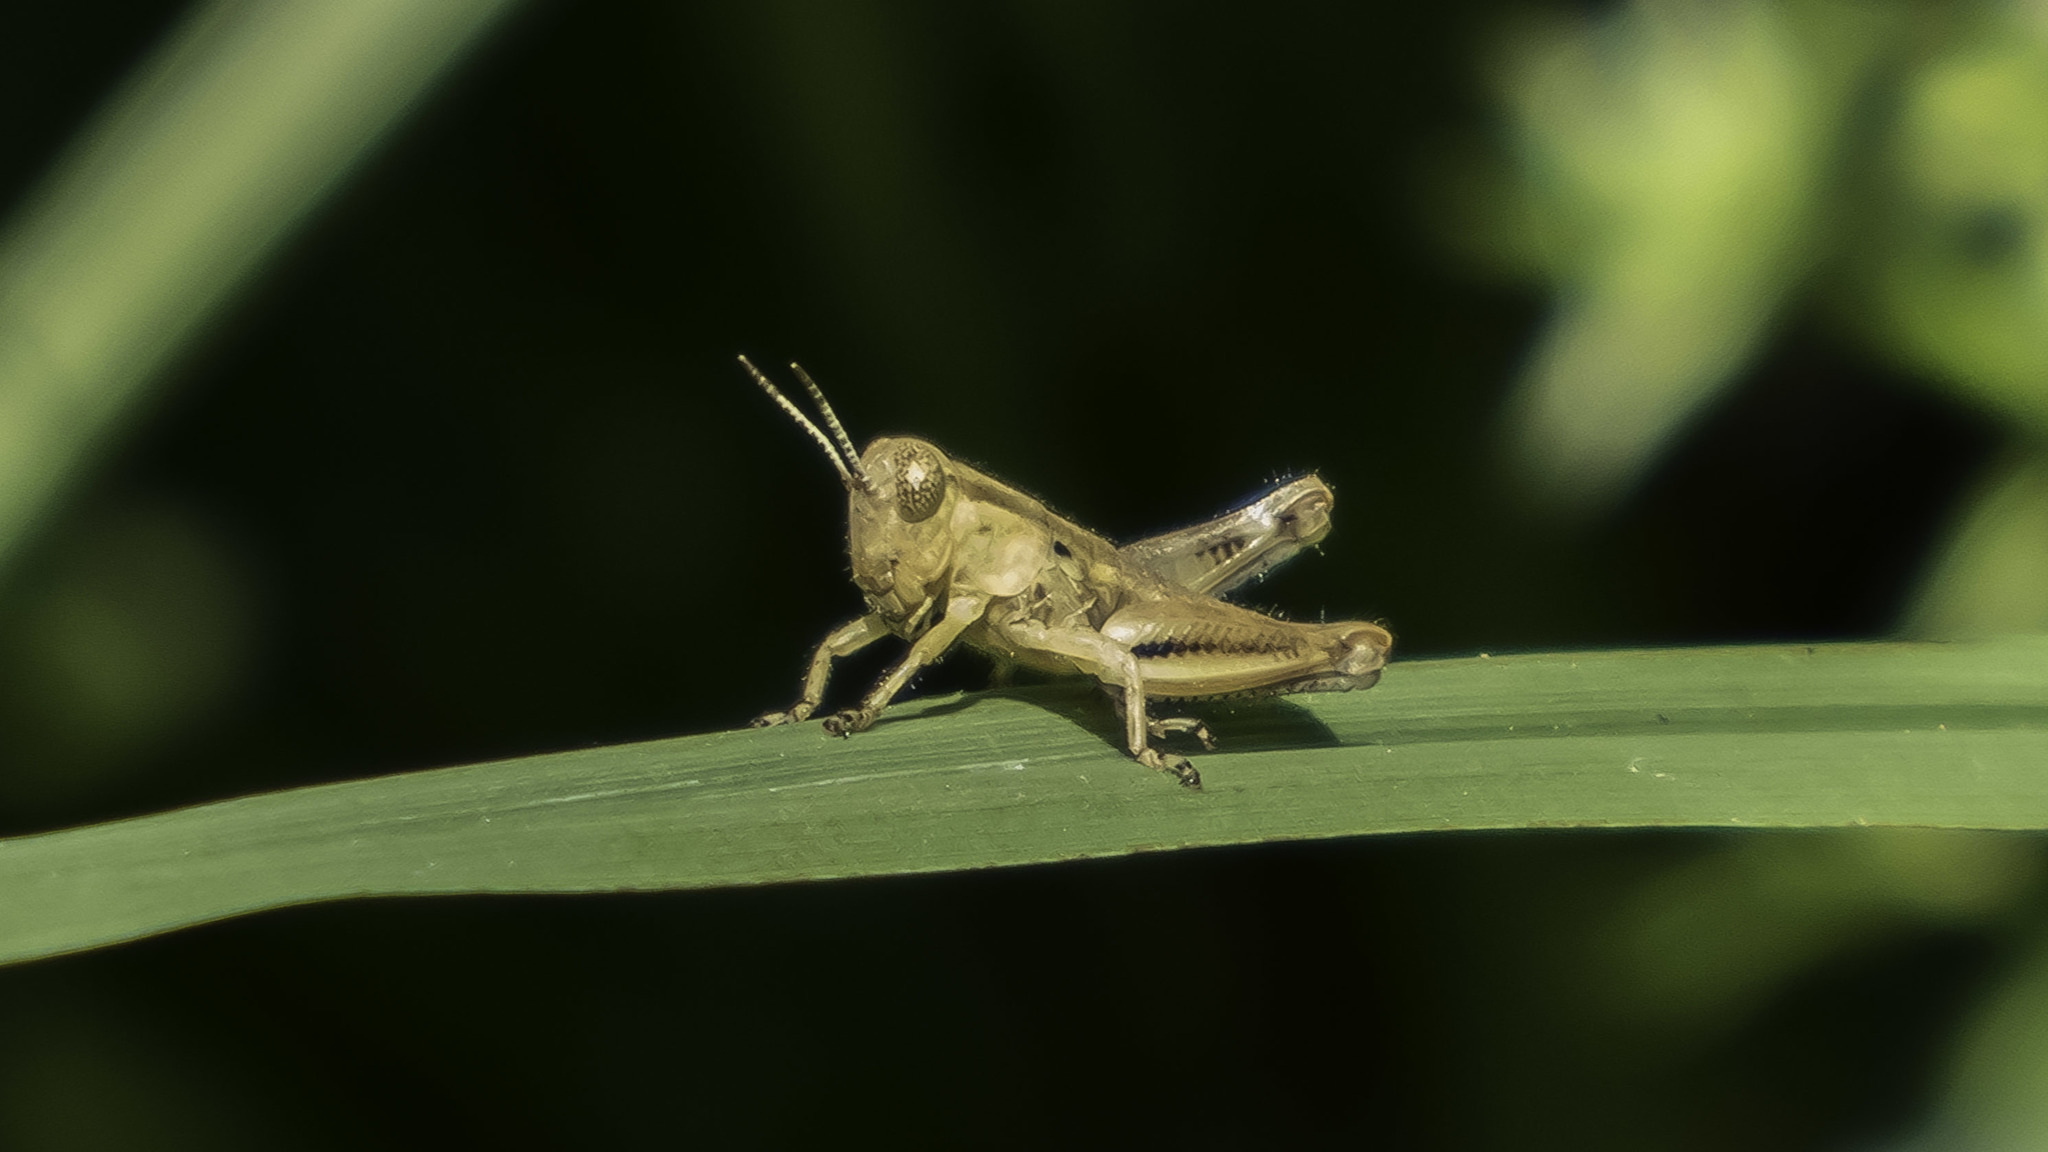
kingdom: Animalia
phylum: Arthropoda
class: Insecta
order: Orthoptera
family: Acrididae
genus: Melanoplus
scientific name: Melanoplus differentialis
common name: Differential grasshopper
